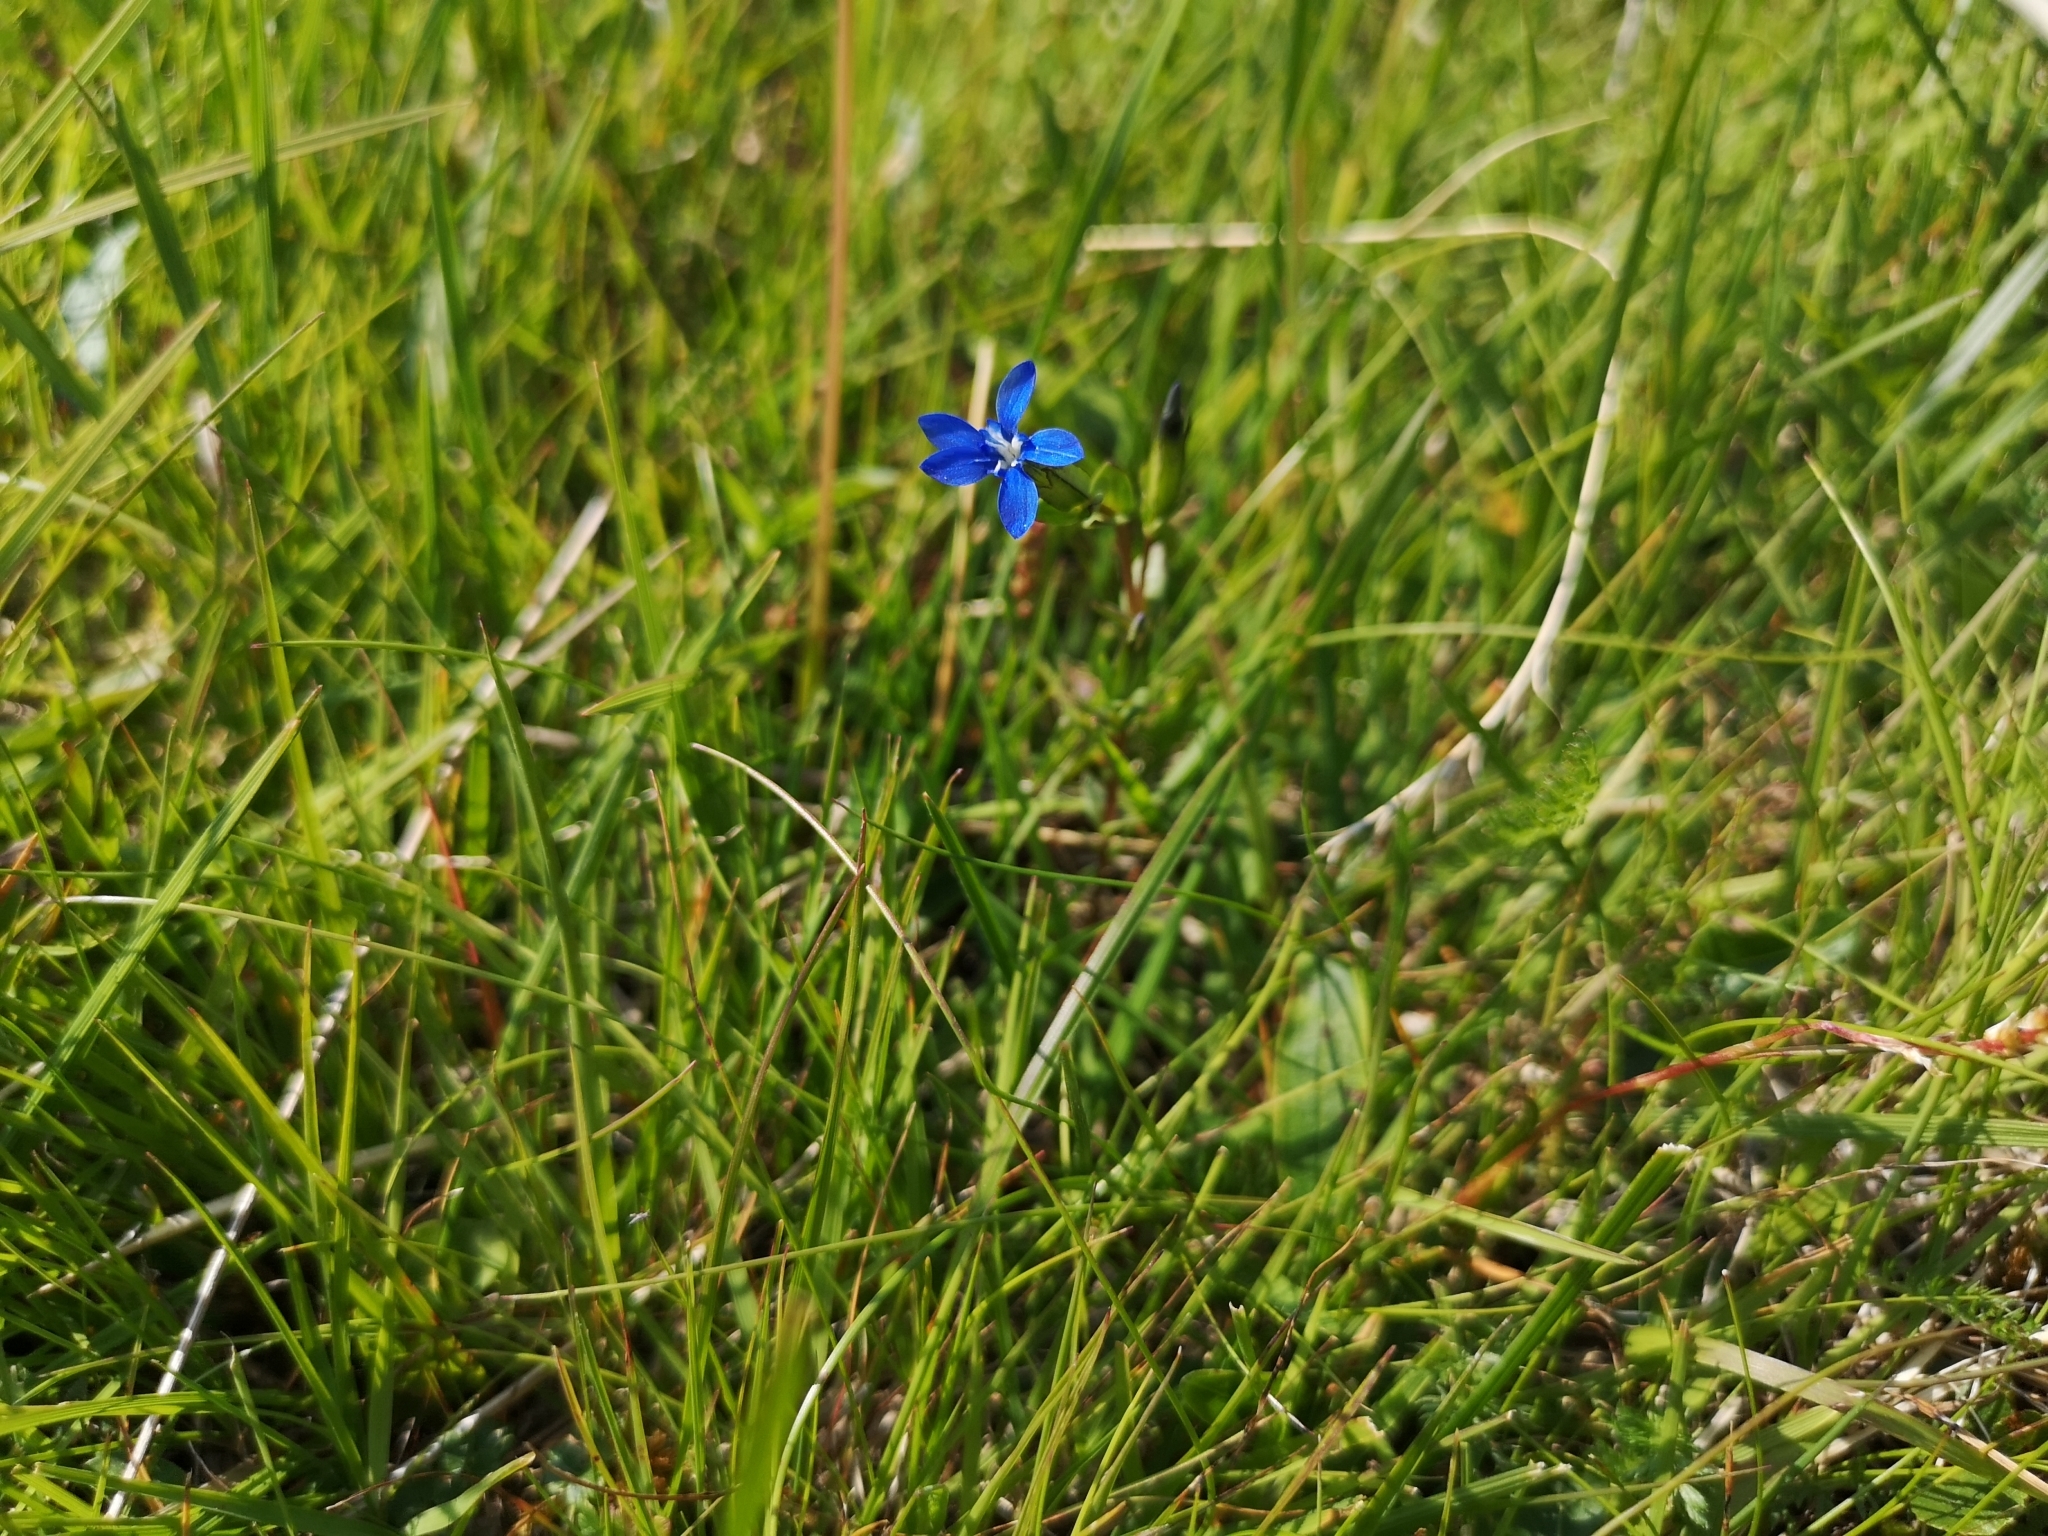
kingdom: Plantae
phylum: Tracheophyta
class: Magnoliopsida
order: Gentianales
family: Gentianaceae
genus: Gentiana
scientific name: Gentiana nivalis
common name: Alpine gentian
